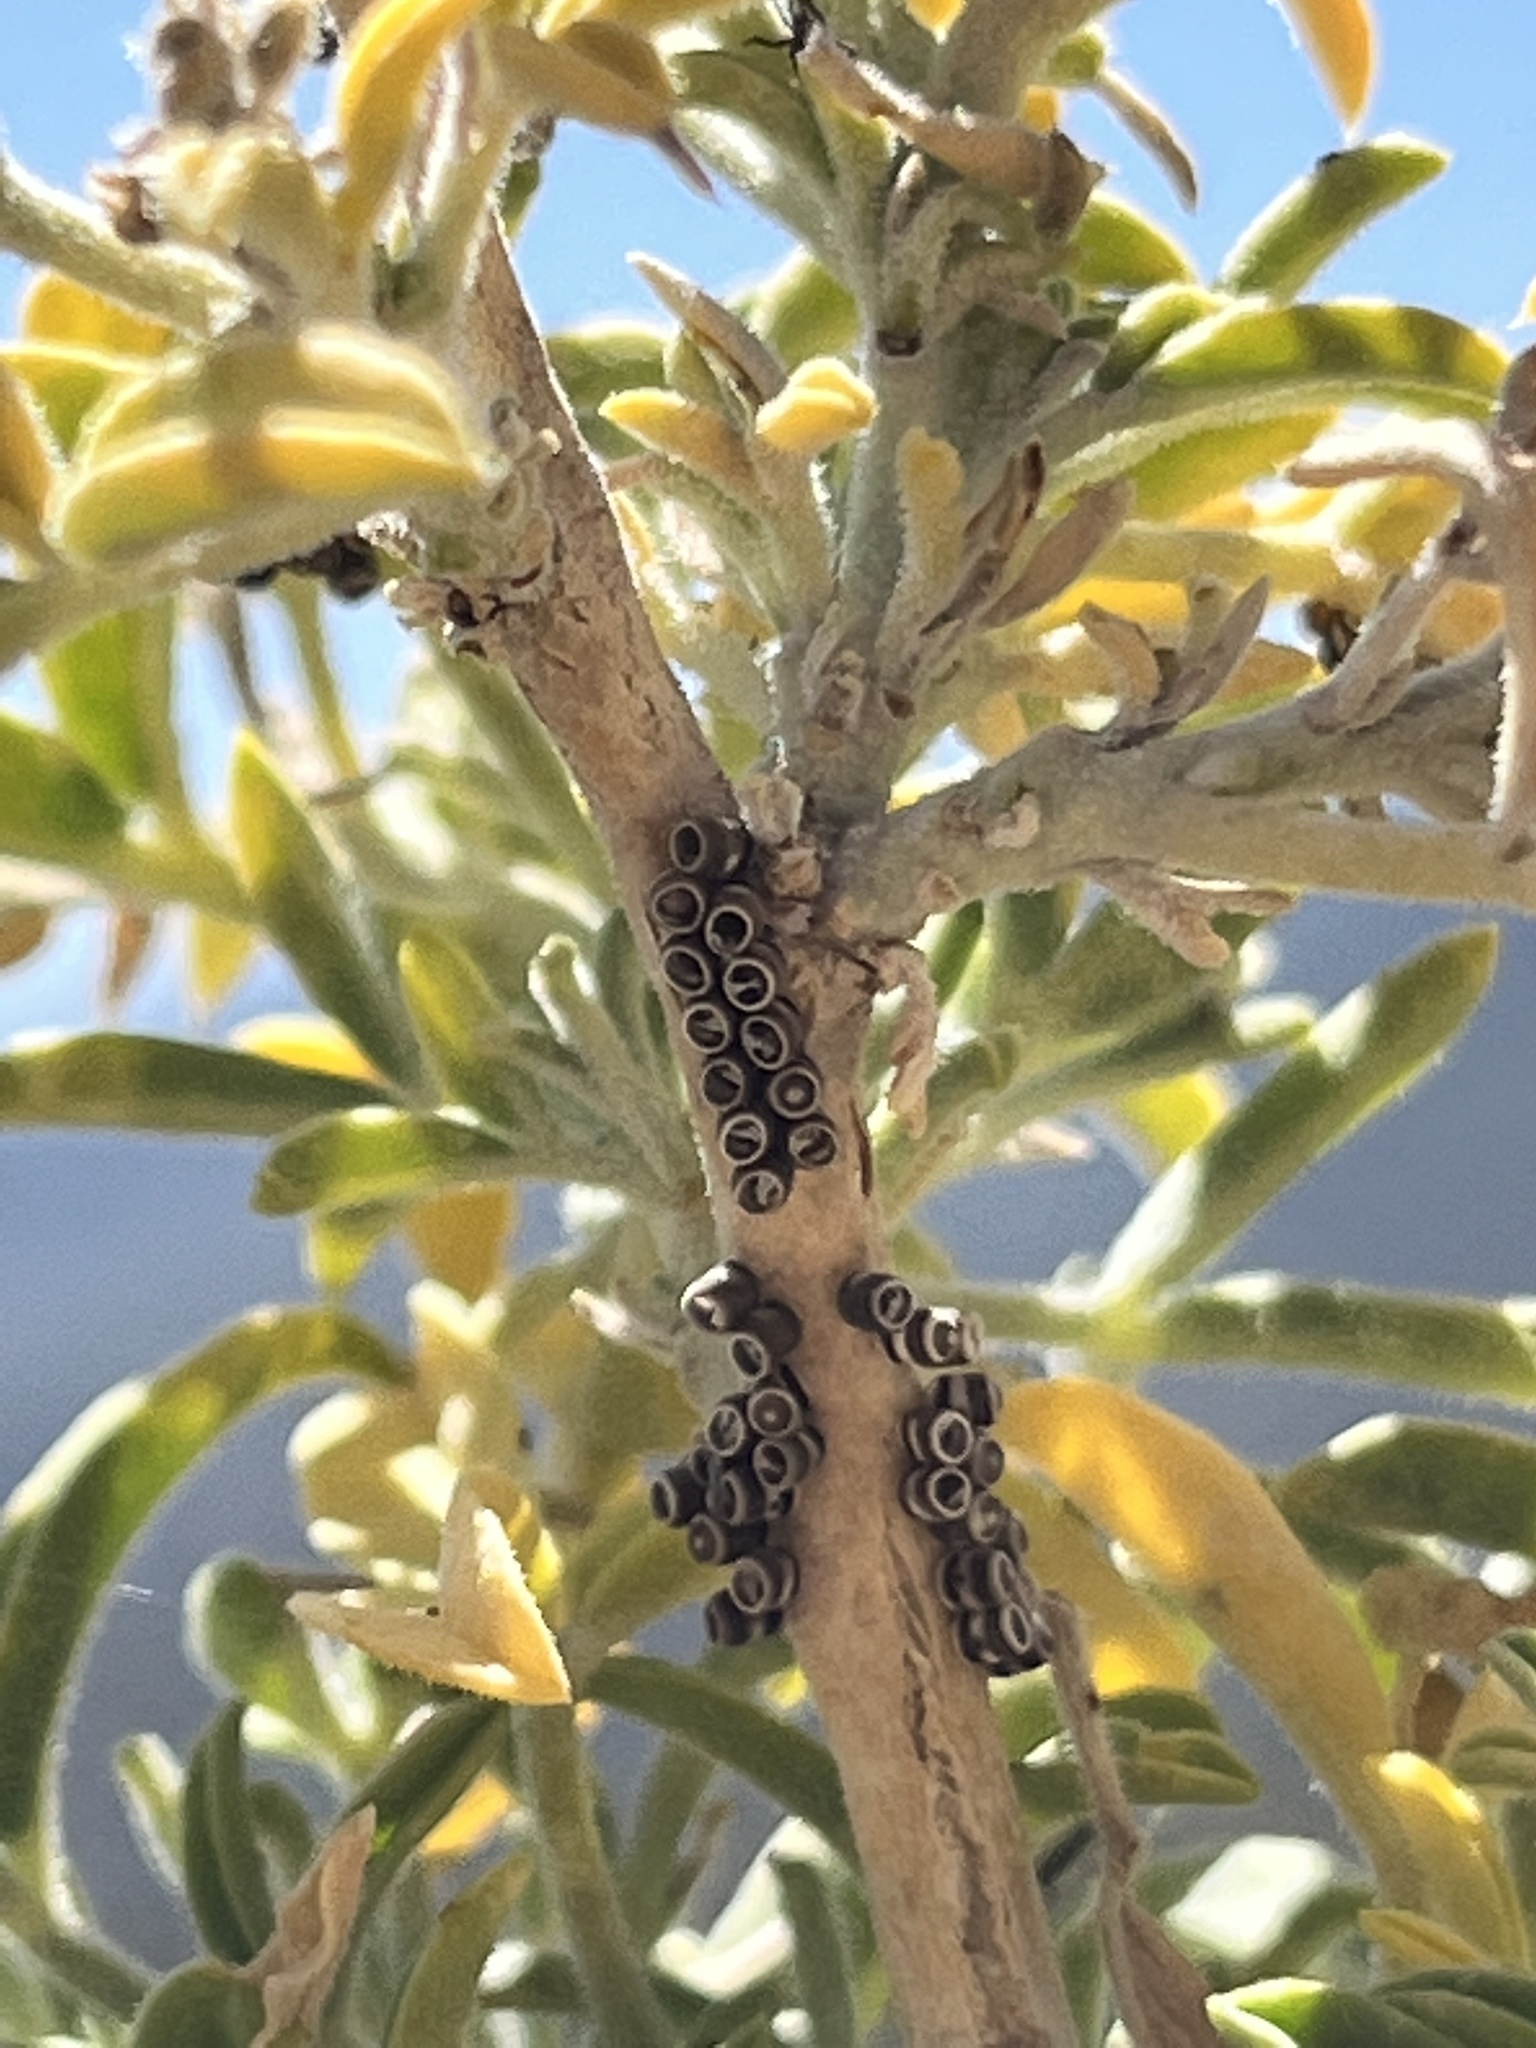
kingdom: Animalia
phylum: Arthropoda
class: Insecta
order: Hemiptera
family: Pentatomidae
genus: Murgantia
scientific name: Murgantia histrionica
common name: Harlequin bug
